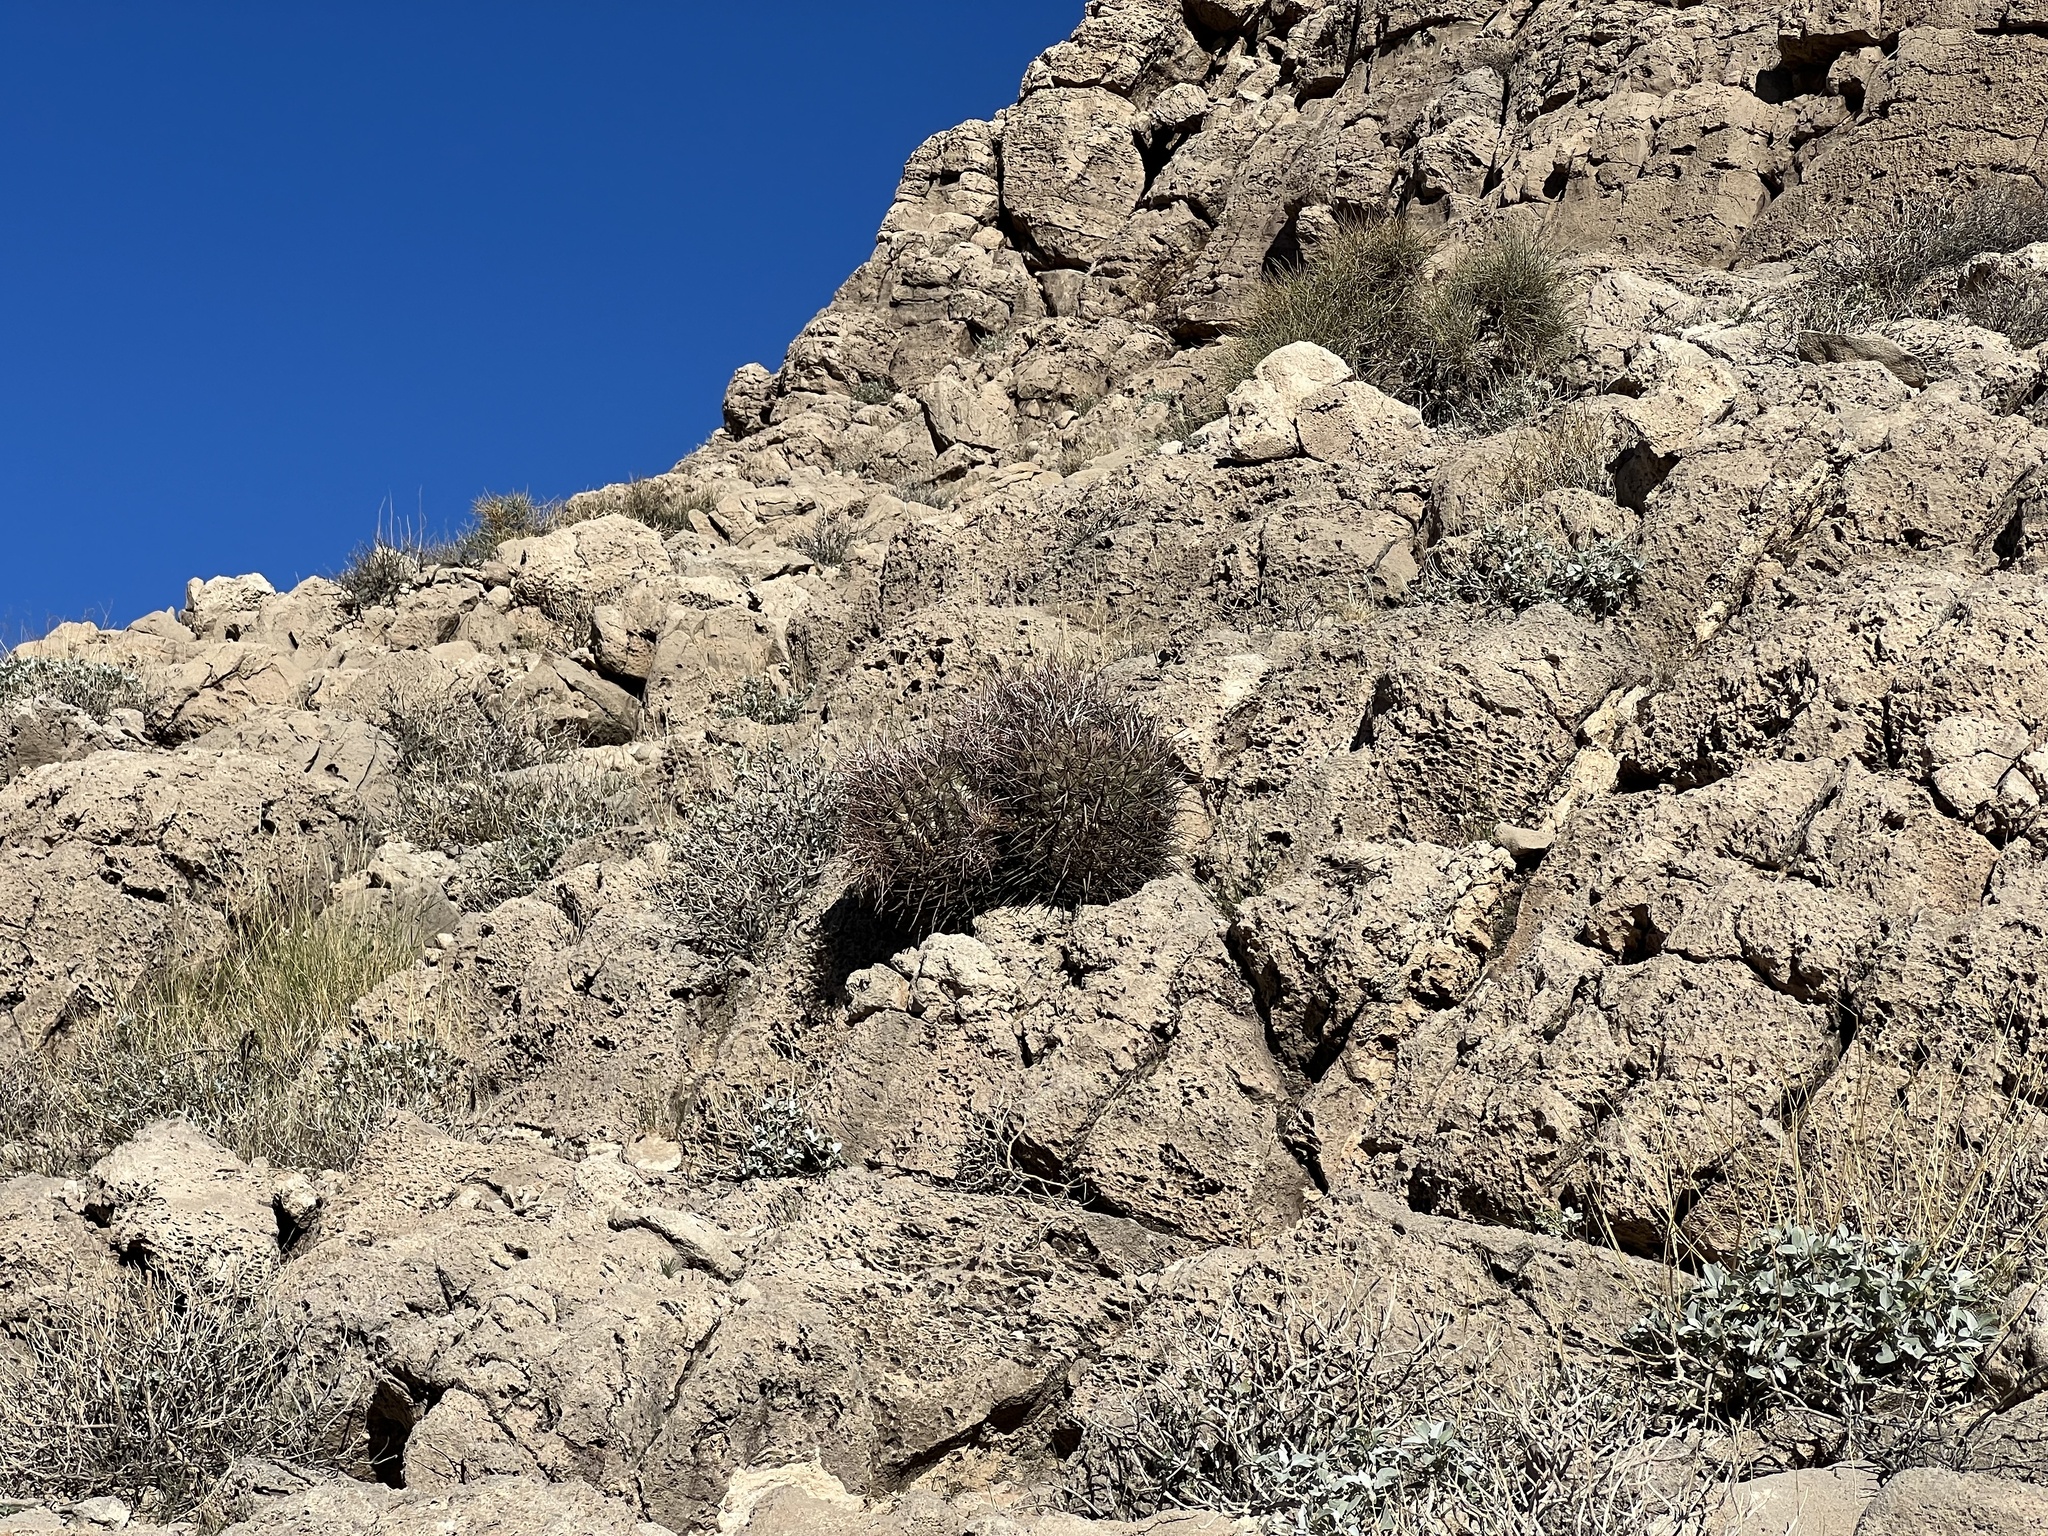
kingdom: Plantae
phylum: Tracheophyta
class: Magnoliopsida
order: Caryophyllales
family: Cactaceae
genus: Echinocactus
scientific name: Echinocactus polycephalus
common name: Cottontop cactus
